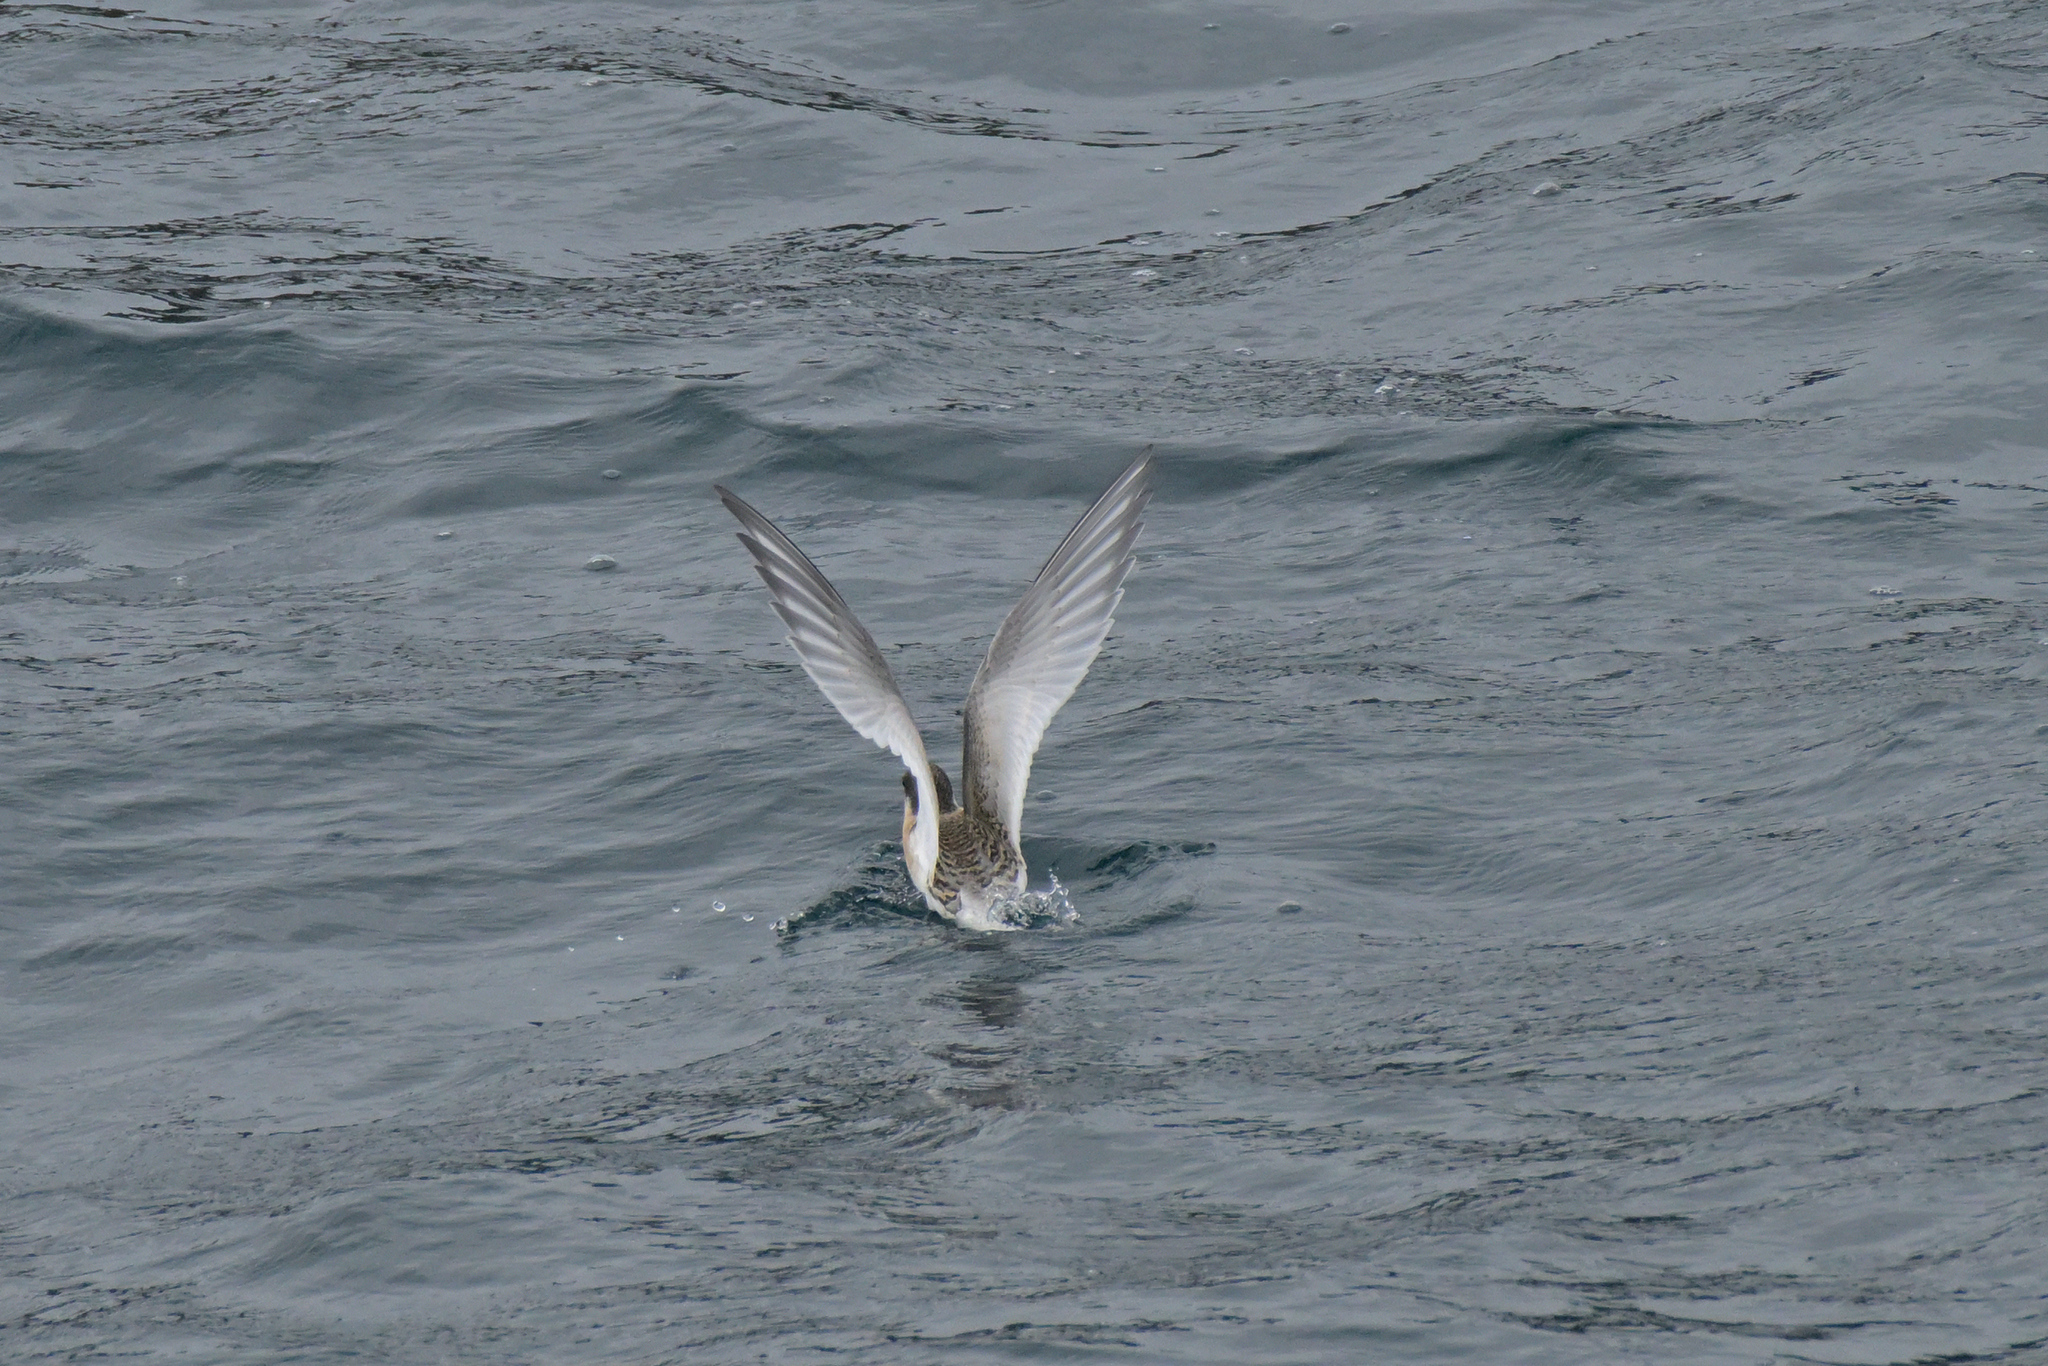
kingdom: Animalia
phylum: Chordata
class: Aves
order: Charadriiformes
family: Laridae
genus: Sterna
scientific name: Sterna vittata
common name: Antarctic tern
